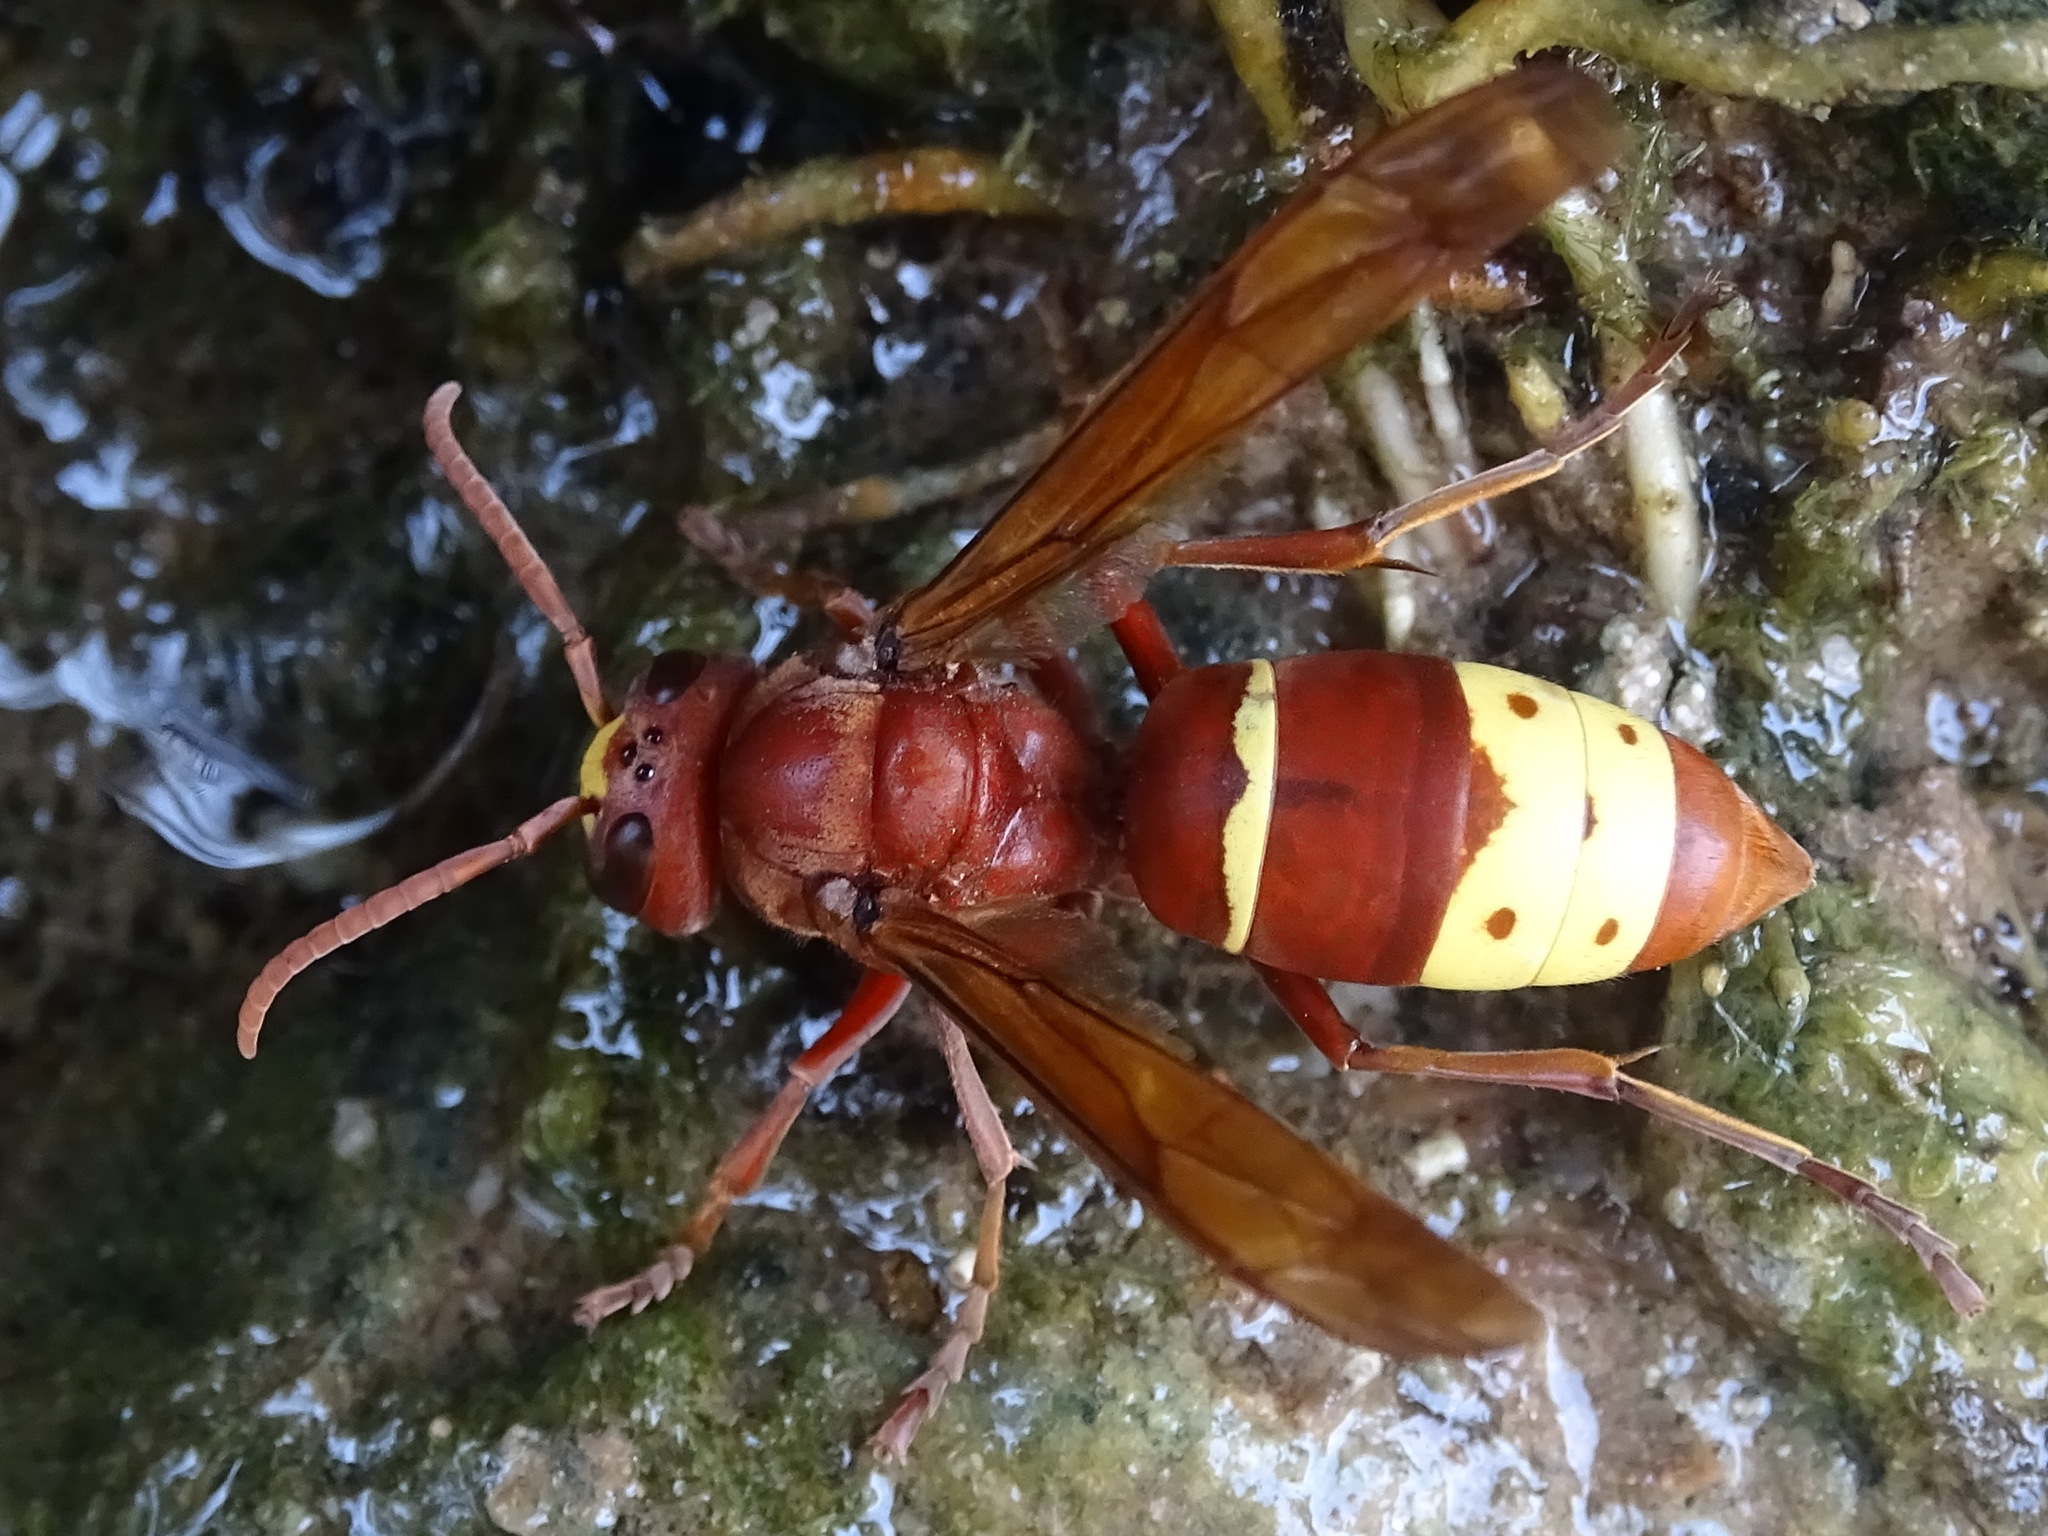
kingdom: Animalia
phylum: Arthropoda
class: Insecta
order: Hymenoptera
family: Vespidae
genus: Vespa
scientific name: Vespa orientalis
